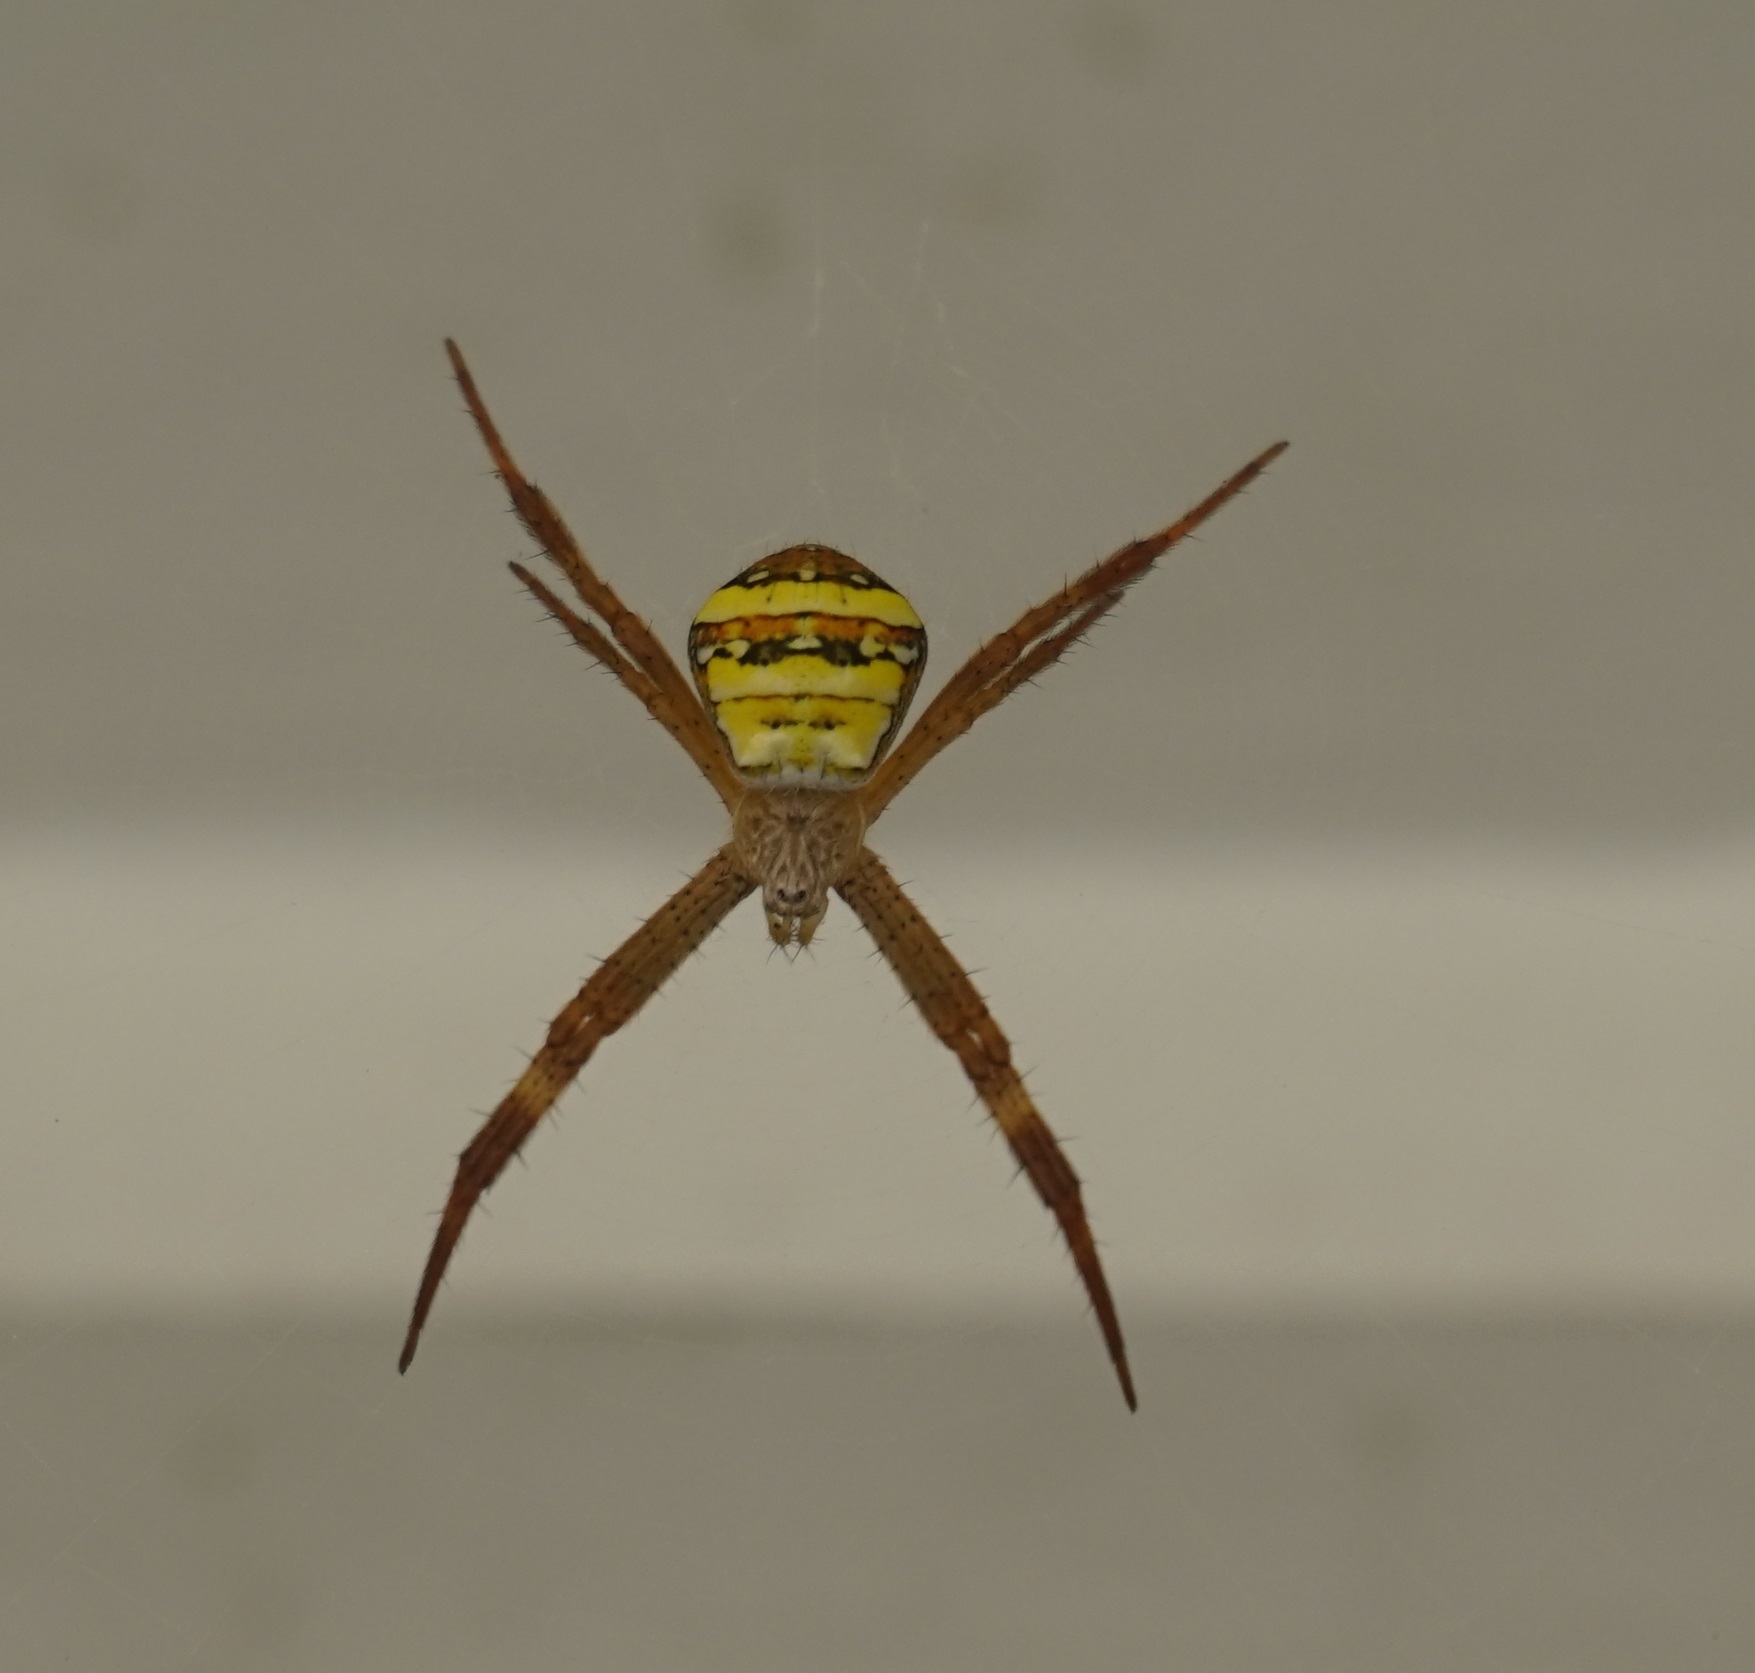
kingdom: Animalia
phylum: Arthropoda
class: Arachnida
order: Araneae
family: Araneidae
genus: Argiope
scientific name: Argiope aetherea
